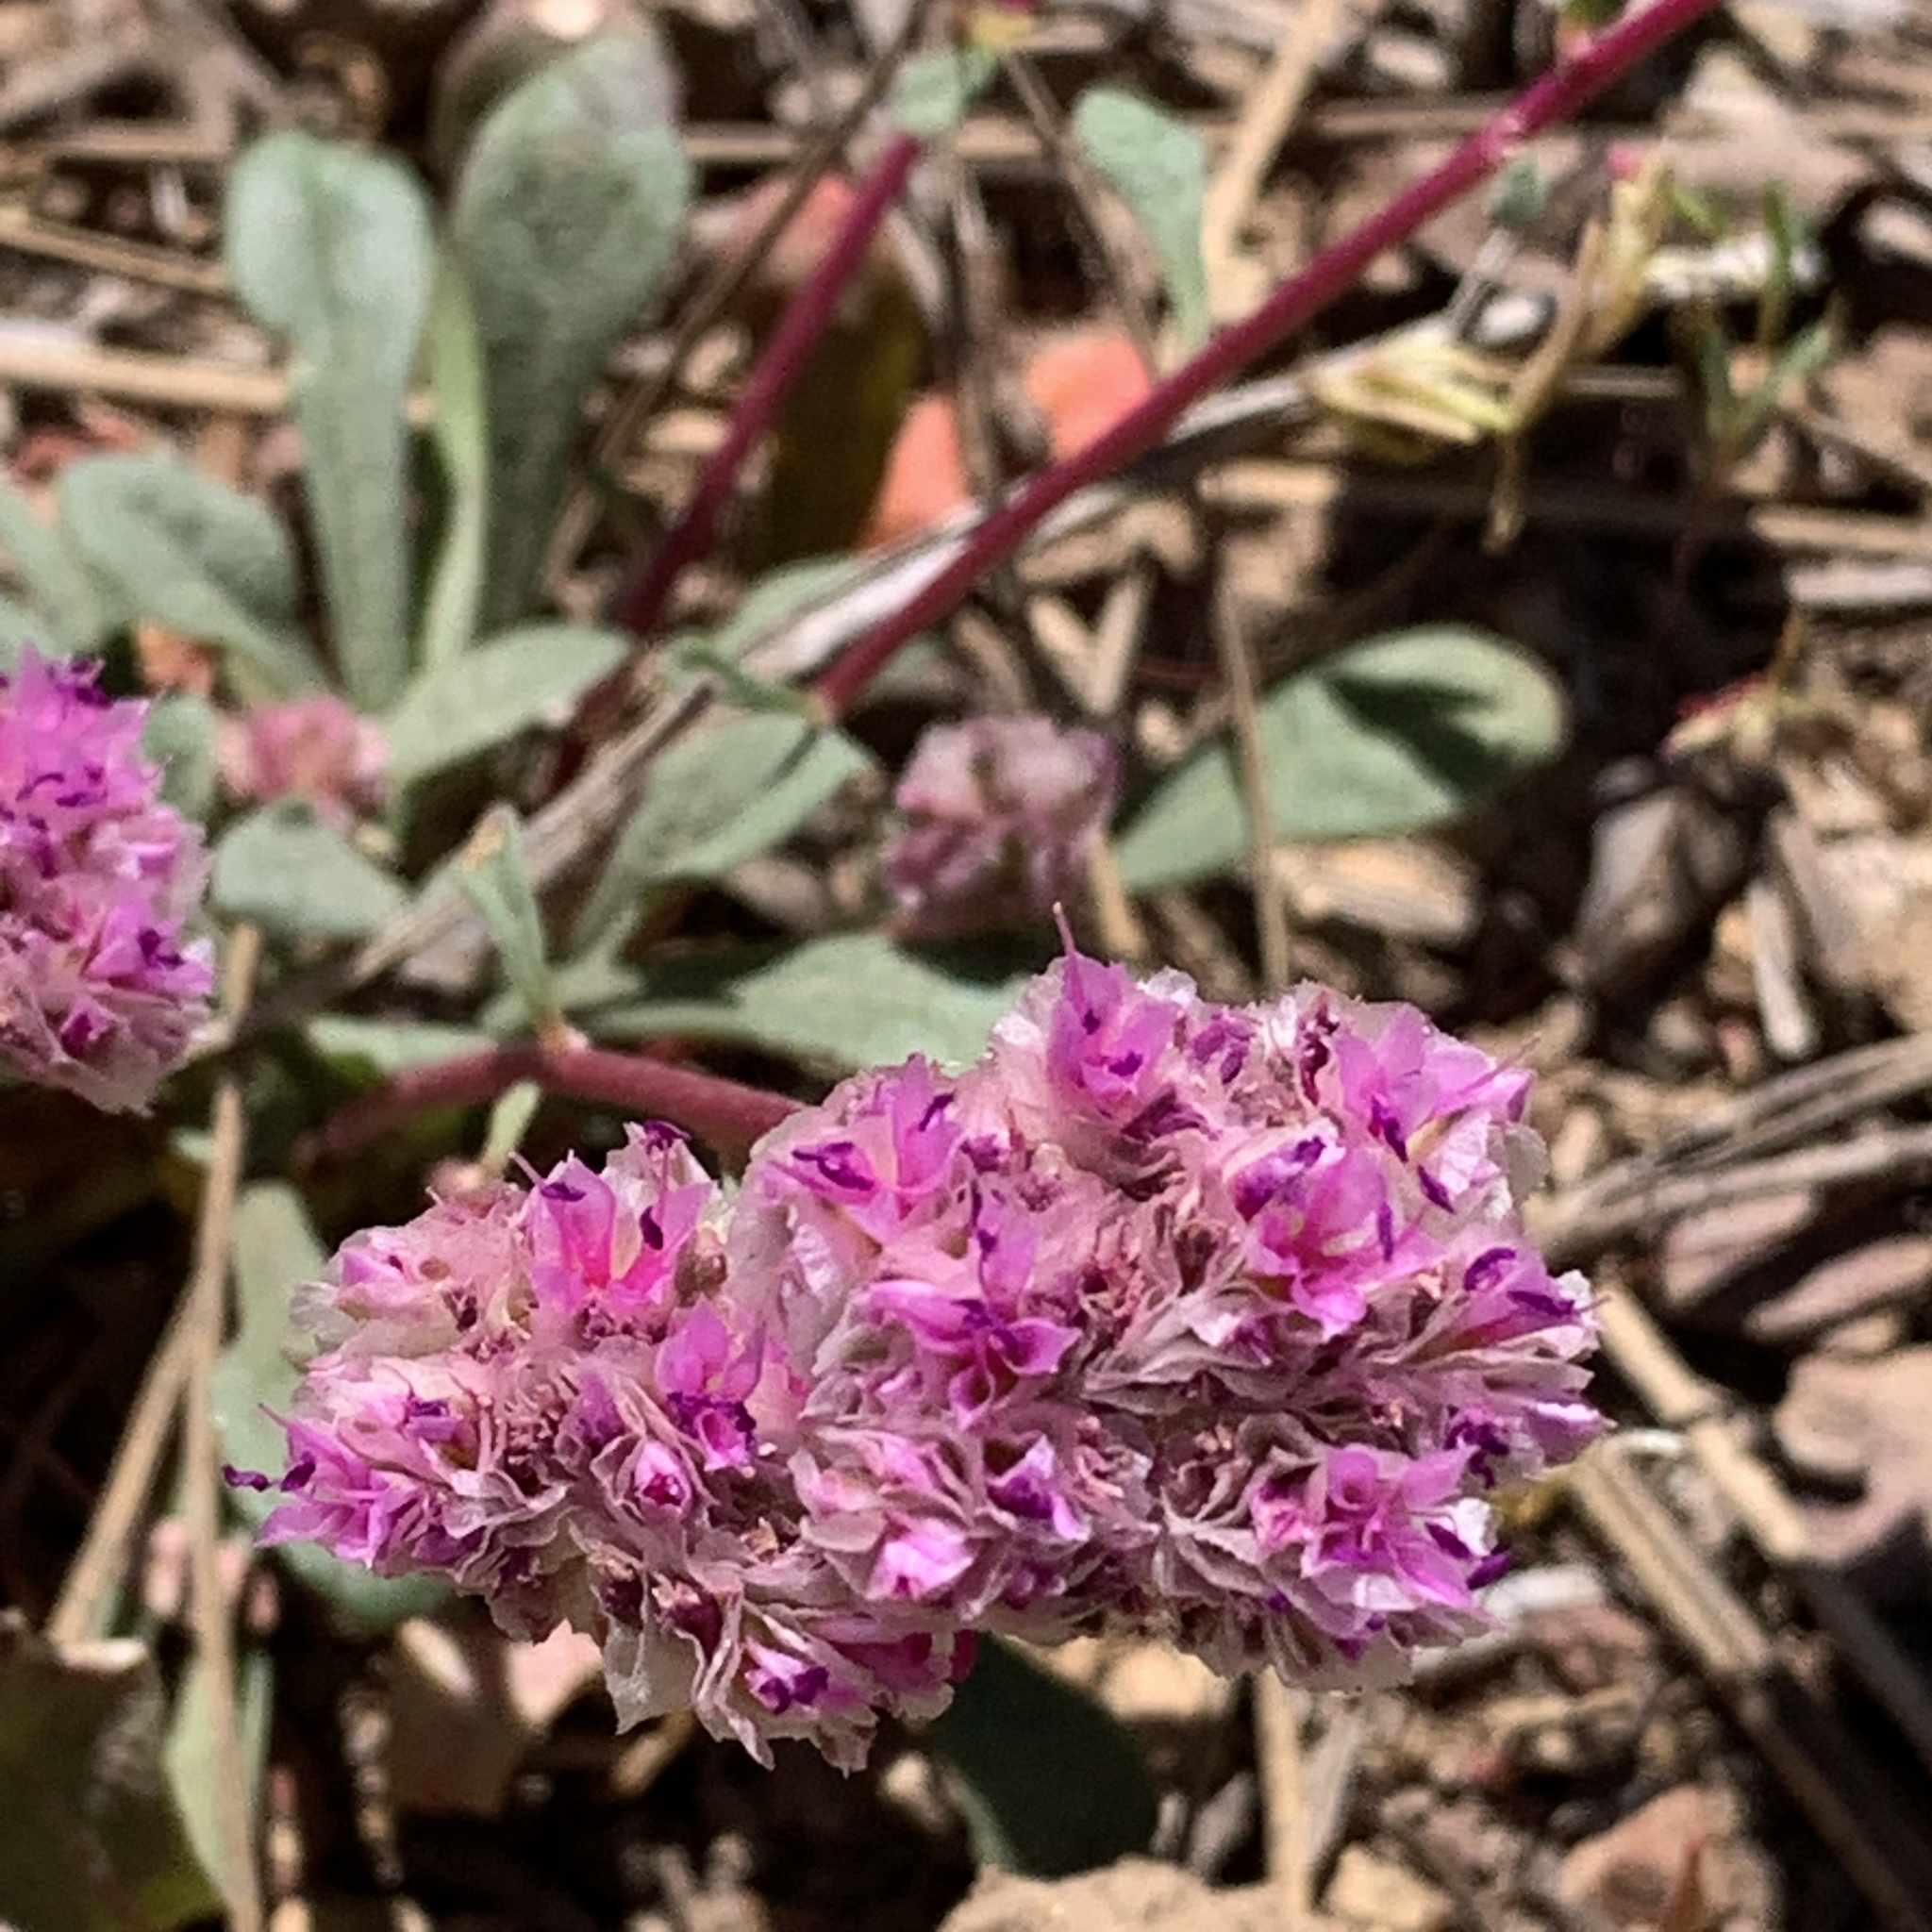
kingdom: Plantae
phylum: Tracheophyta
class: Magnoliopsida
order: Caryophyllales
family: Montiaceae
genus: Calyptridium
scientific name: Calyptridium monospermum
